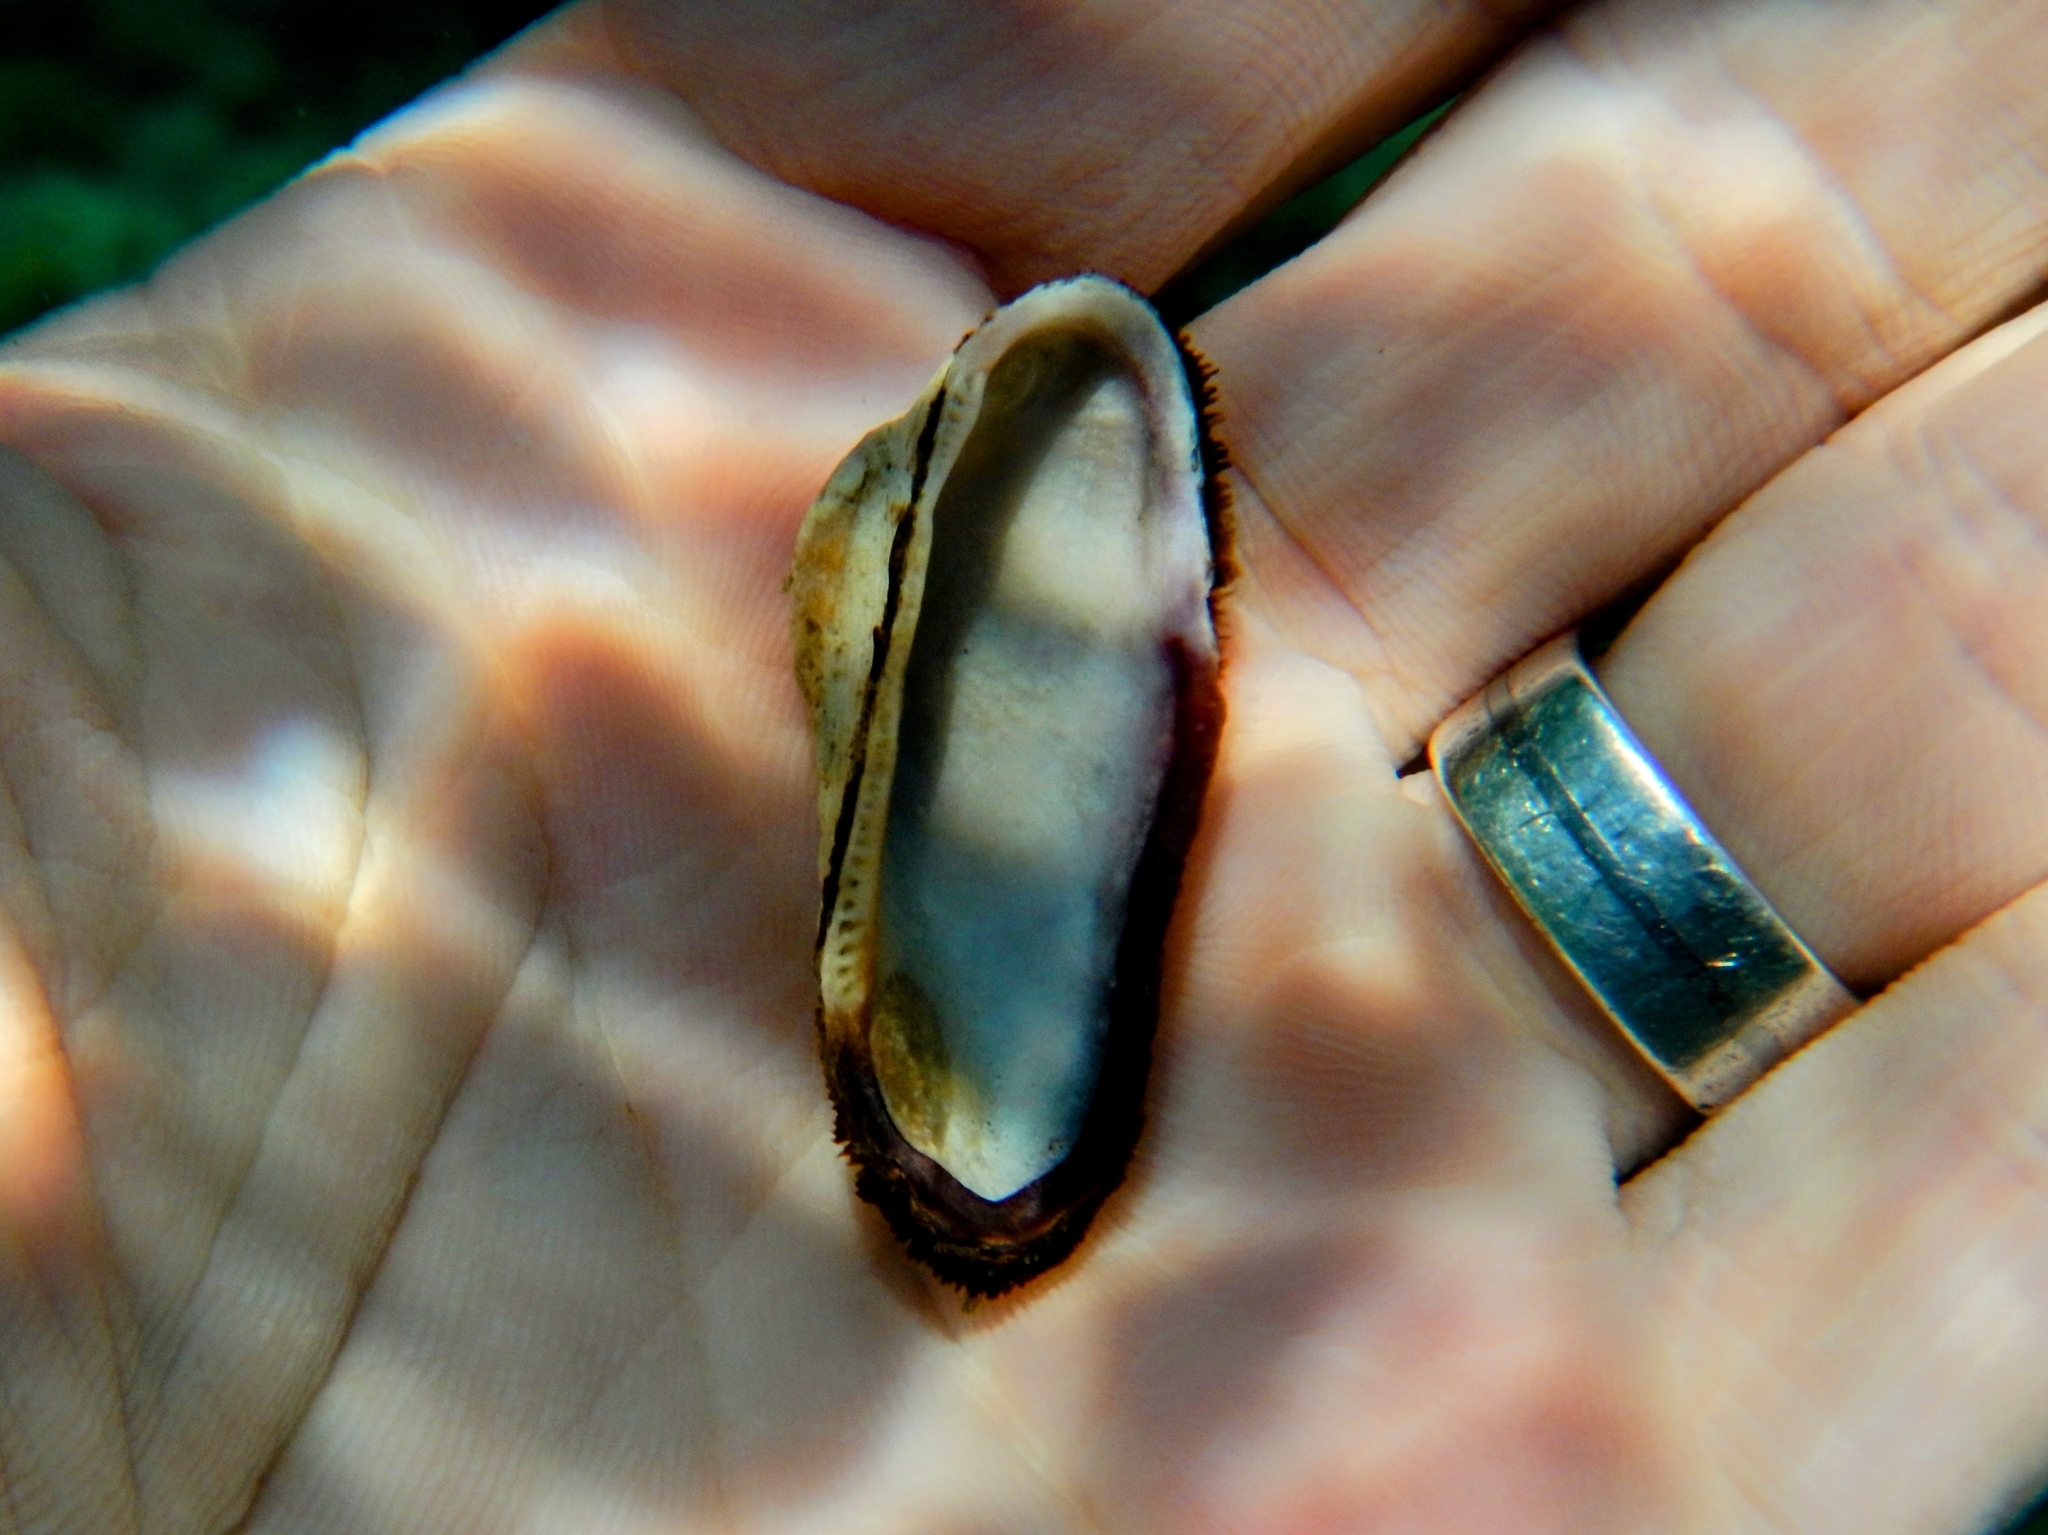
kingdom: Animalia
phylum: Mollusca
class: Bivalvia
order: Arcida
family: Arcidae
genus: Barbatia
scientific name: Barbatia barbata
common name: Bearded ark
